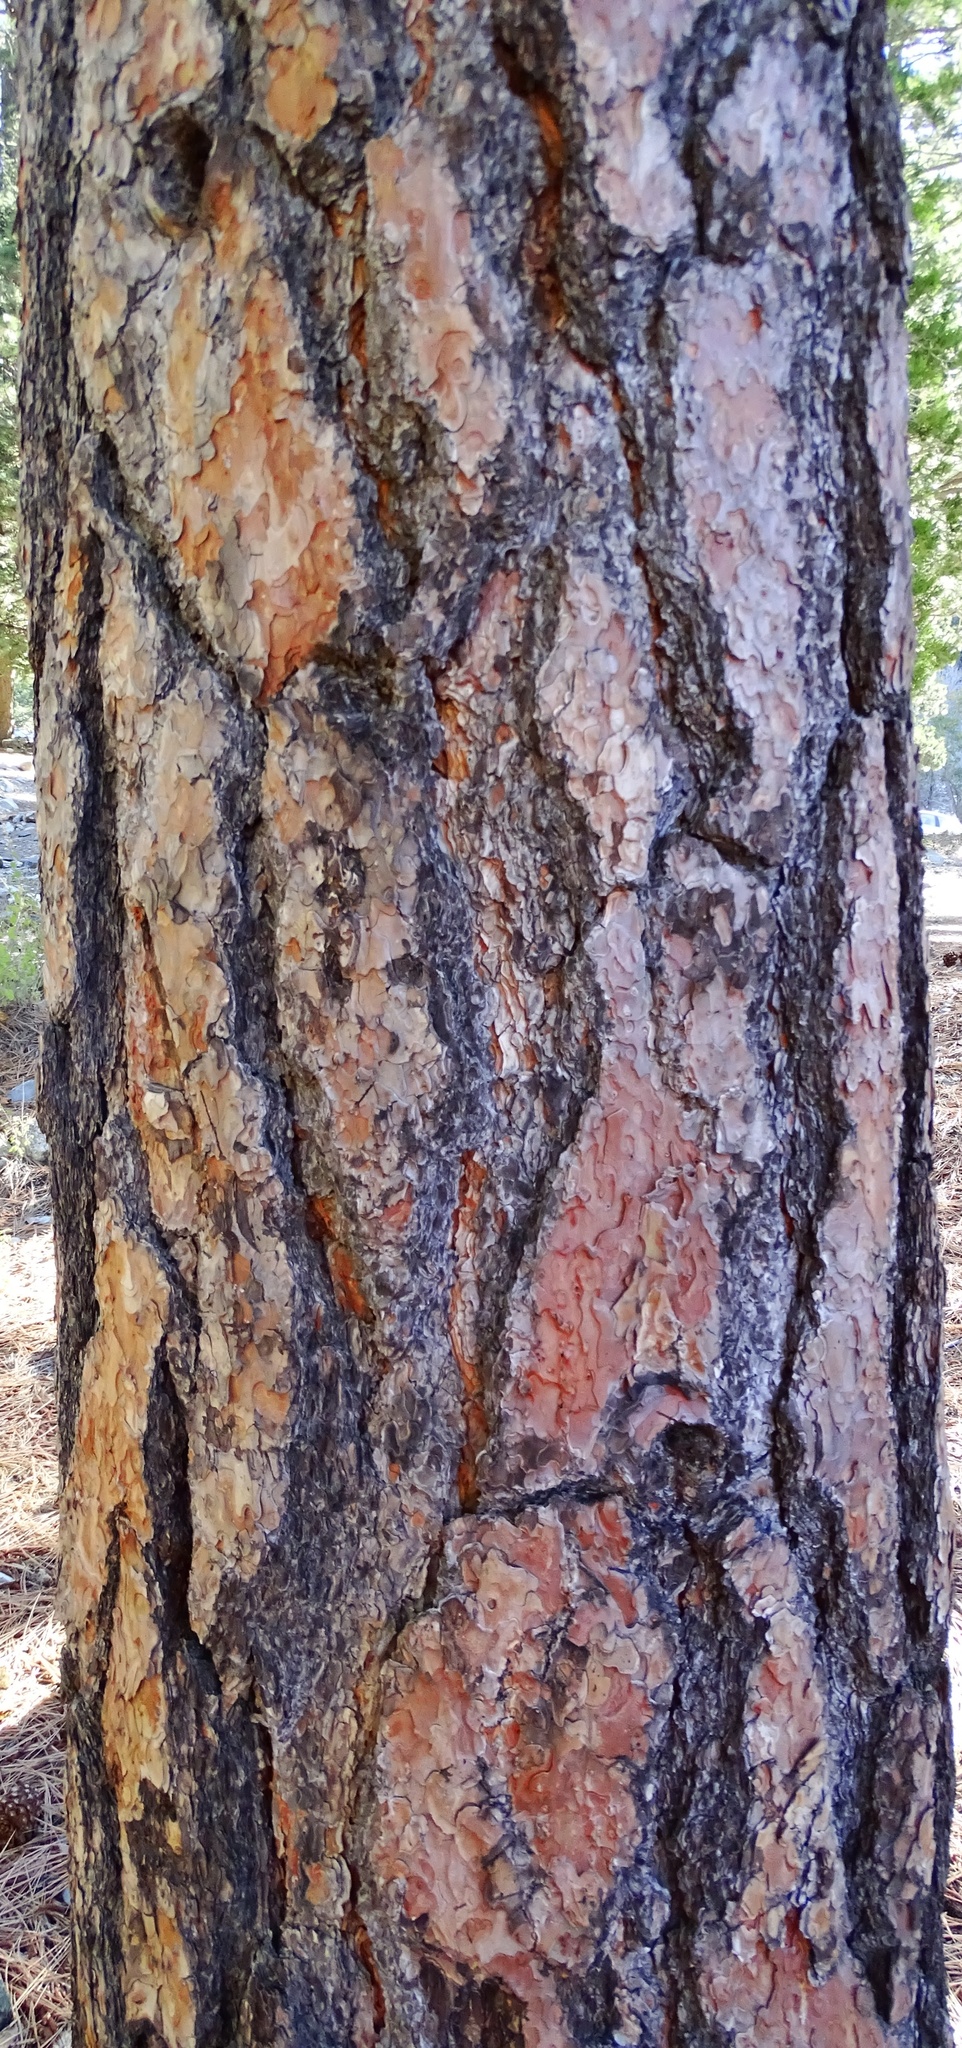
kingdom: Plantae
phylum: Tracheophyta
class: Pinopsida
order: Pinales
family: Pinaceae
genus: Pinus
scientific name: Pinus ponderosa
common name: Western yellow-pine
